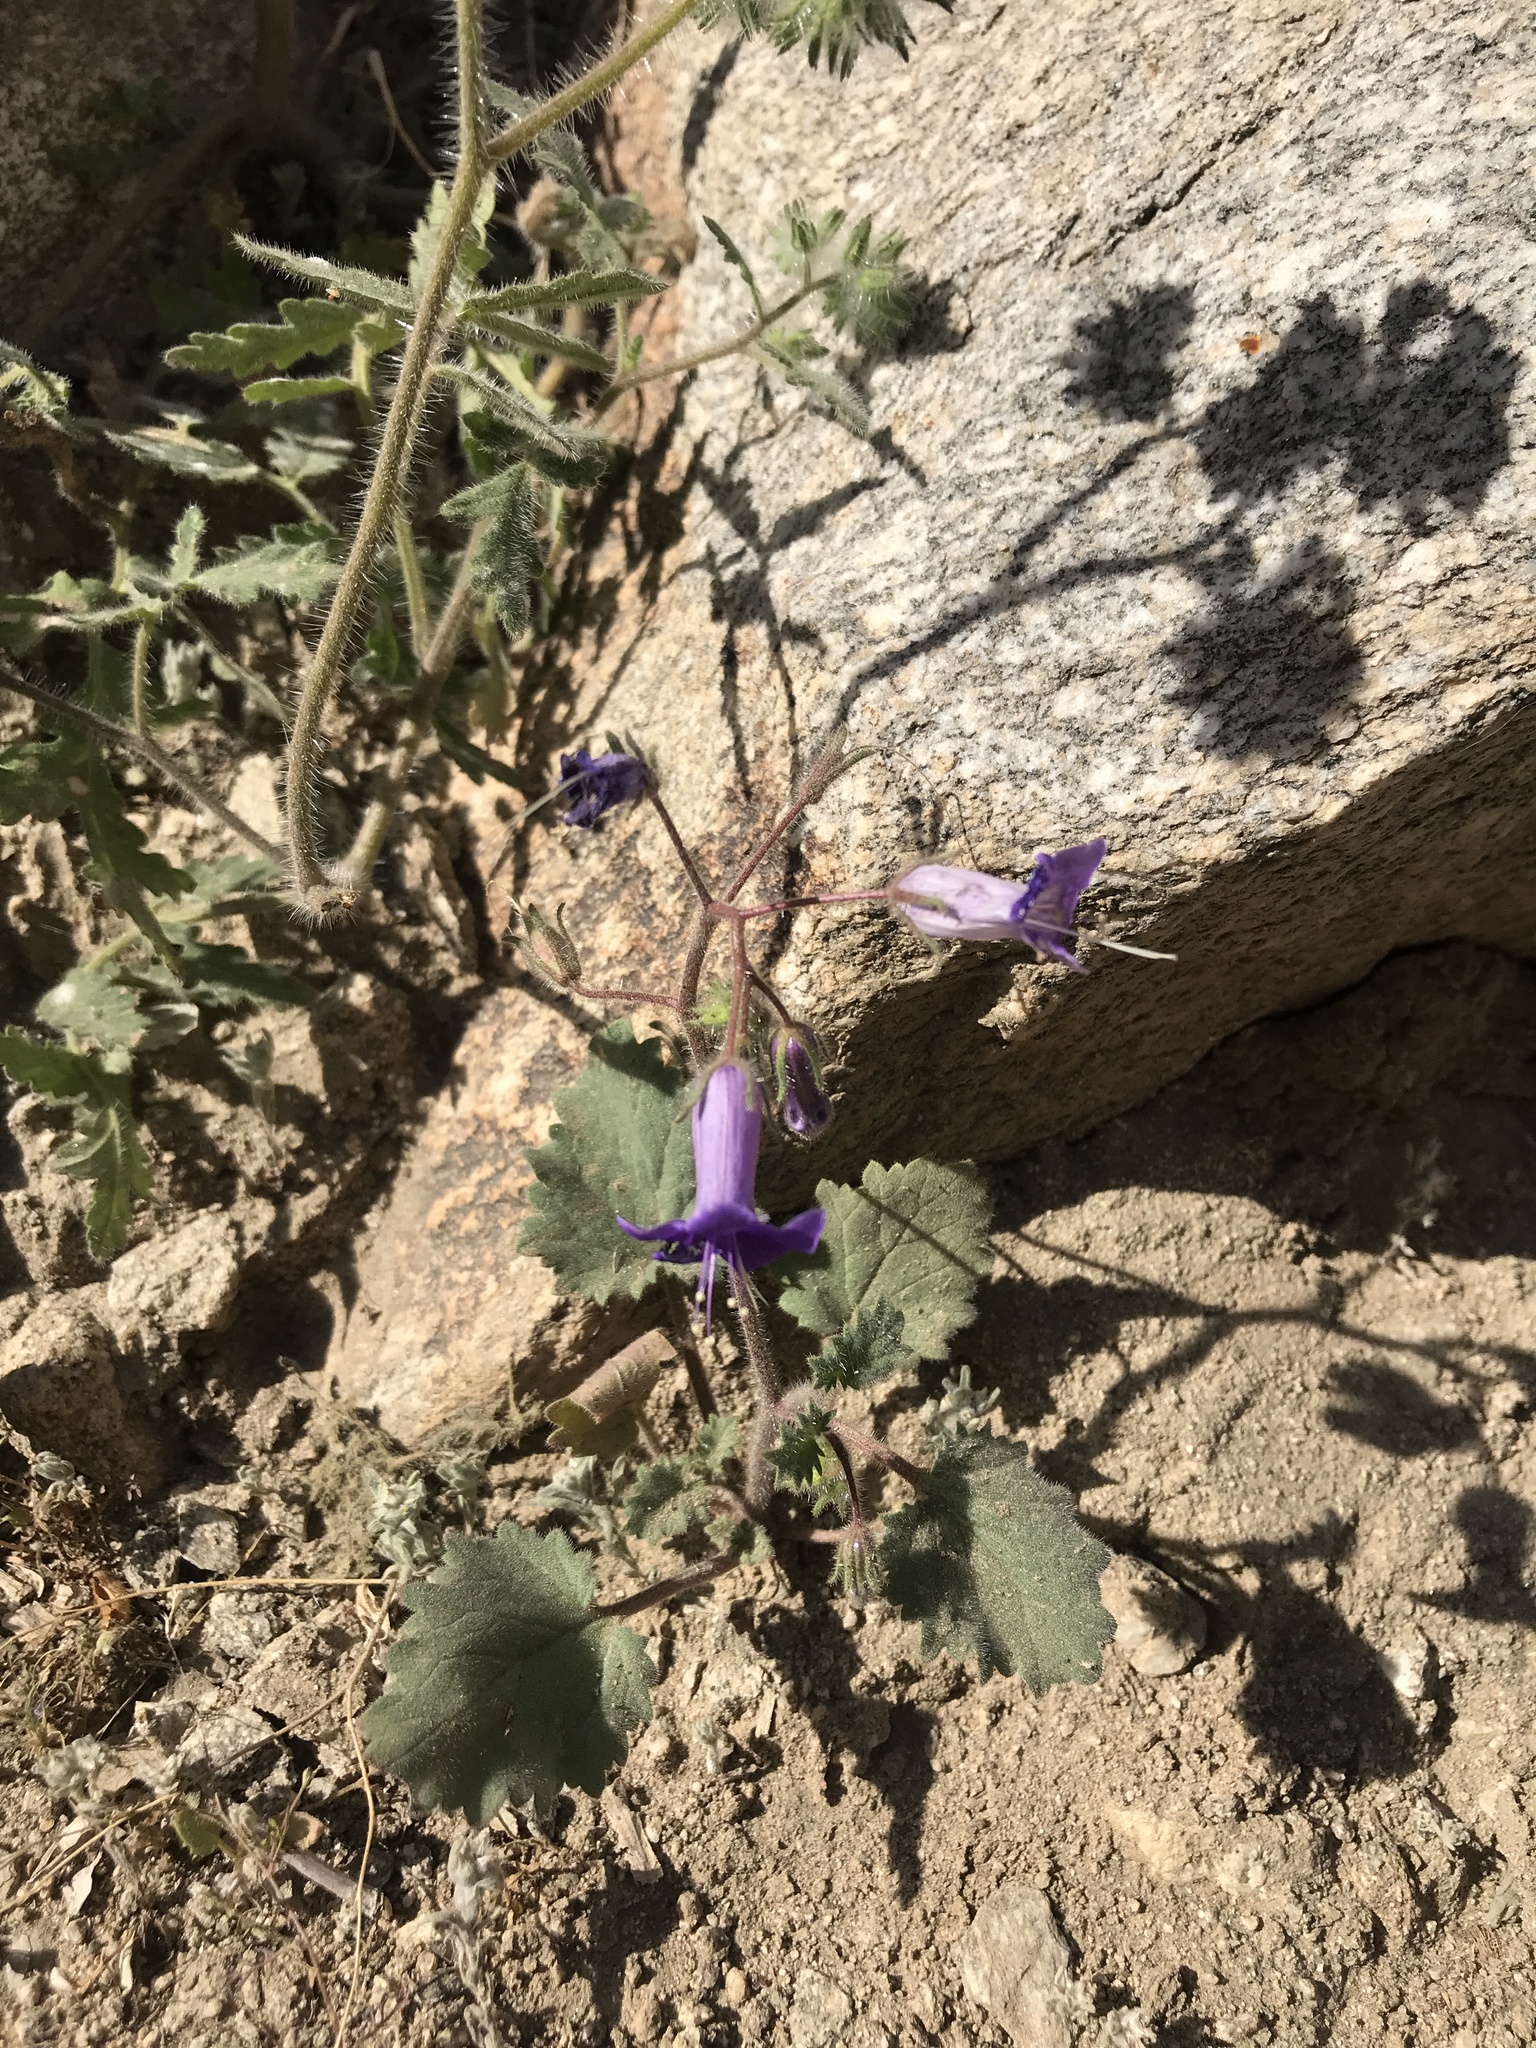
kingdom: Plantae
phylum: Tracheophyta
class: Magnoliopsida
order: Boraginales
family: Hydrophyllaceae
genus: Phacelia
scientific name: Phacelia minor
